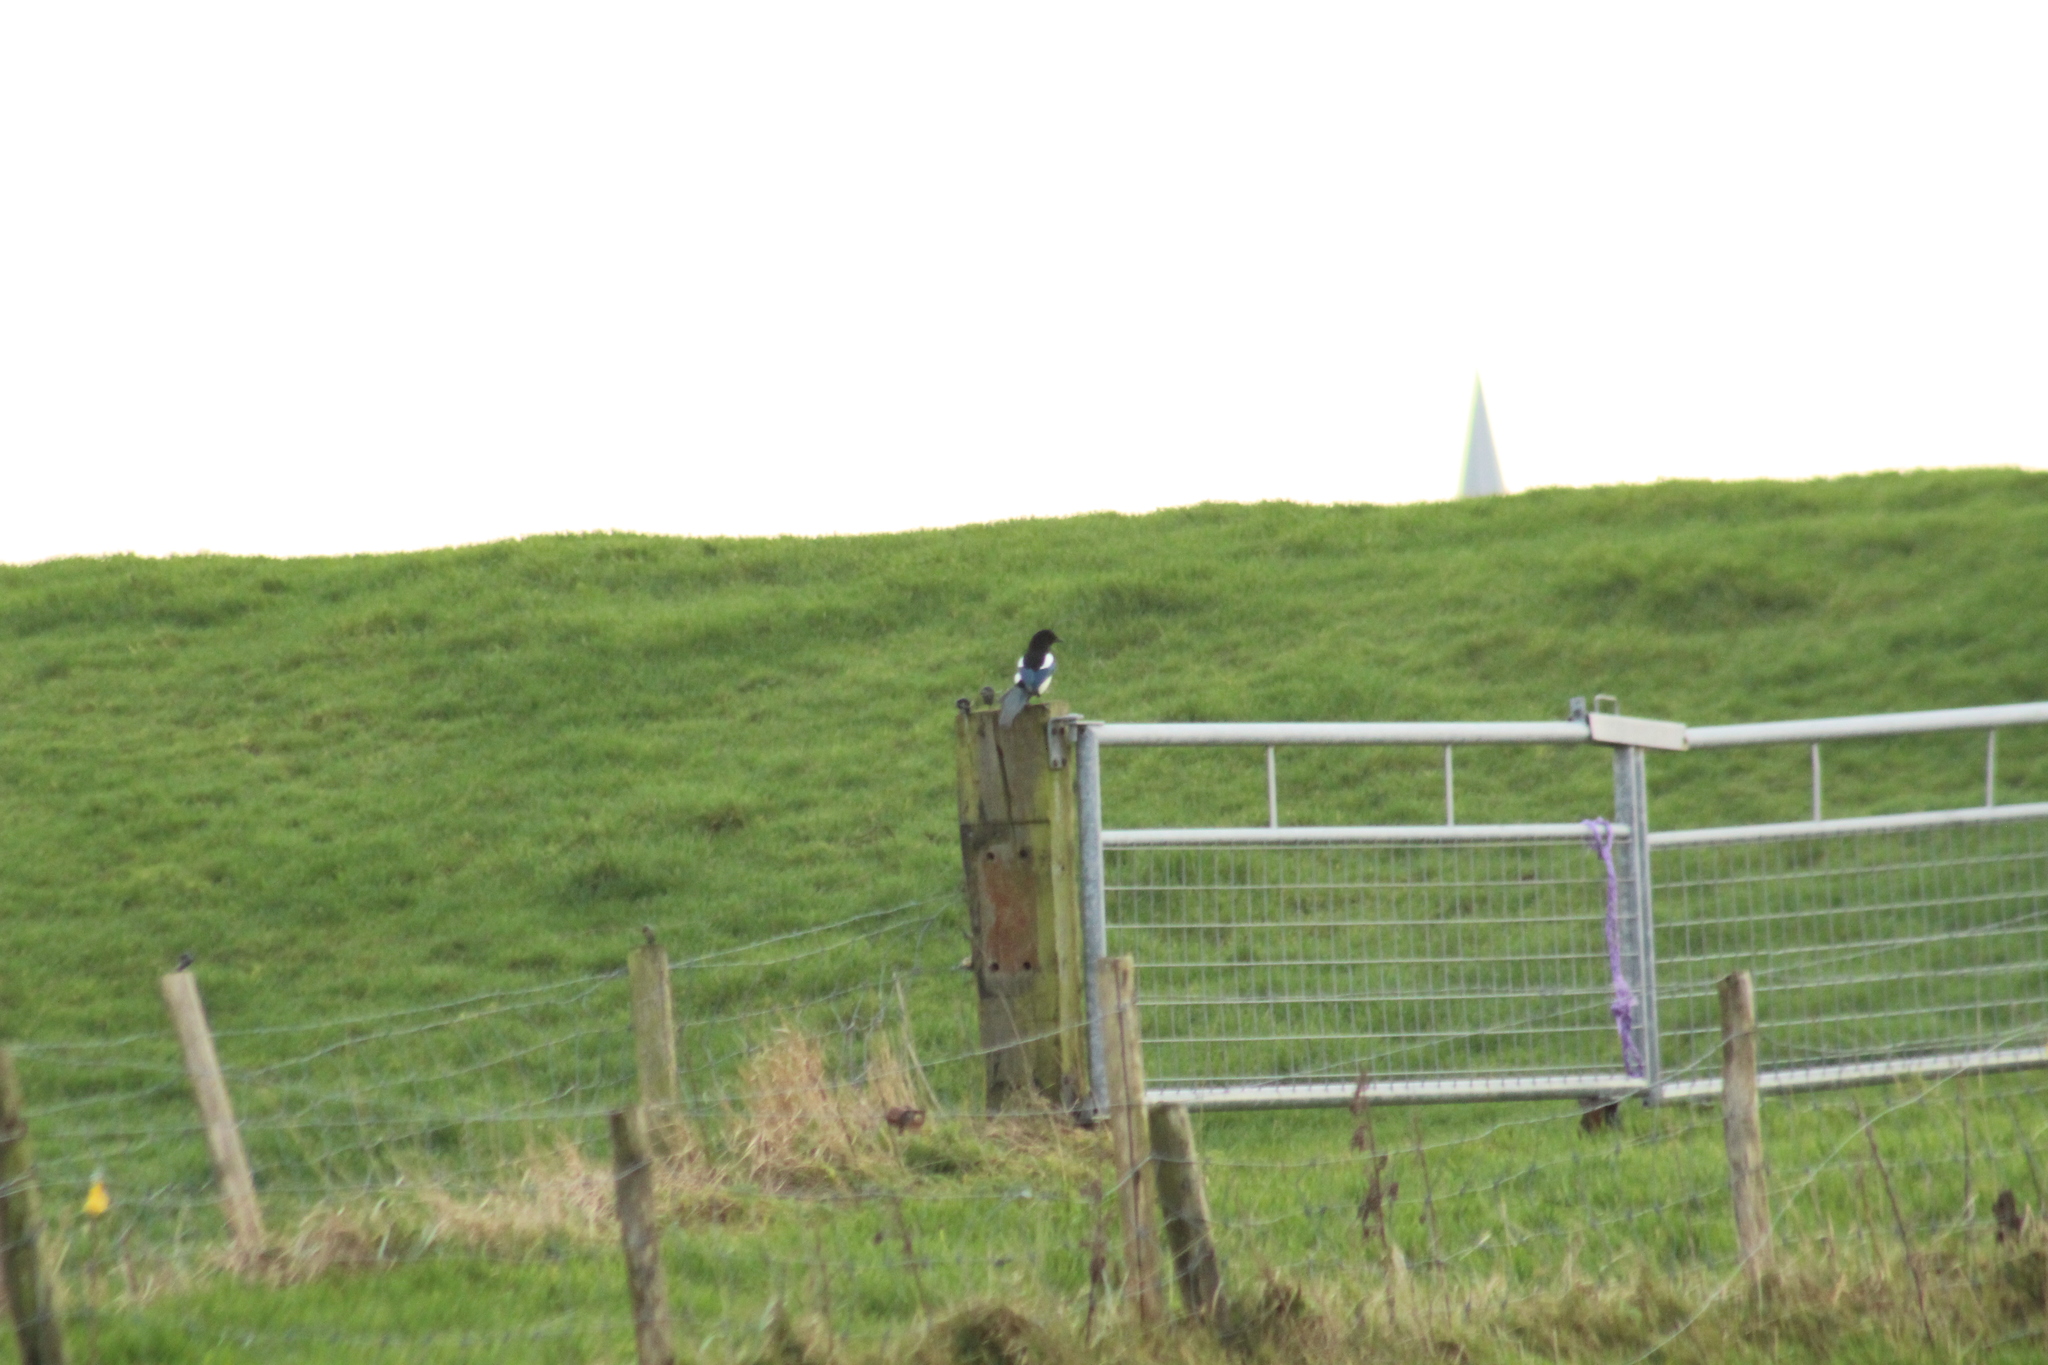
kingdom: Animalia
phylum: Chordata
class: Aves
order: Passeriformes
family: Corvidae
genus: Pica
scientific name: Pica pica
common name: Eurasian magpie
